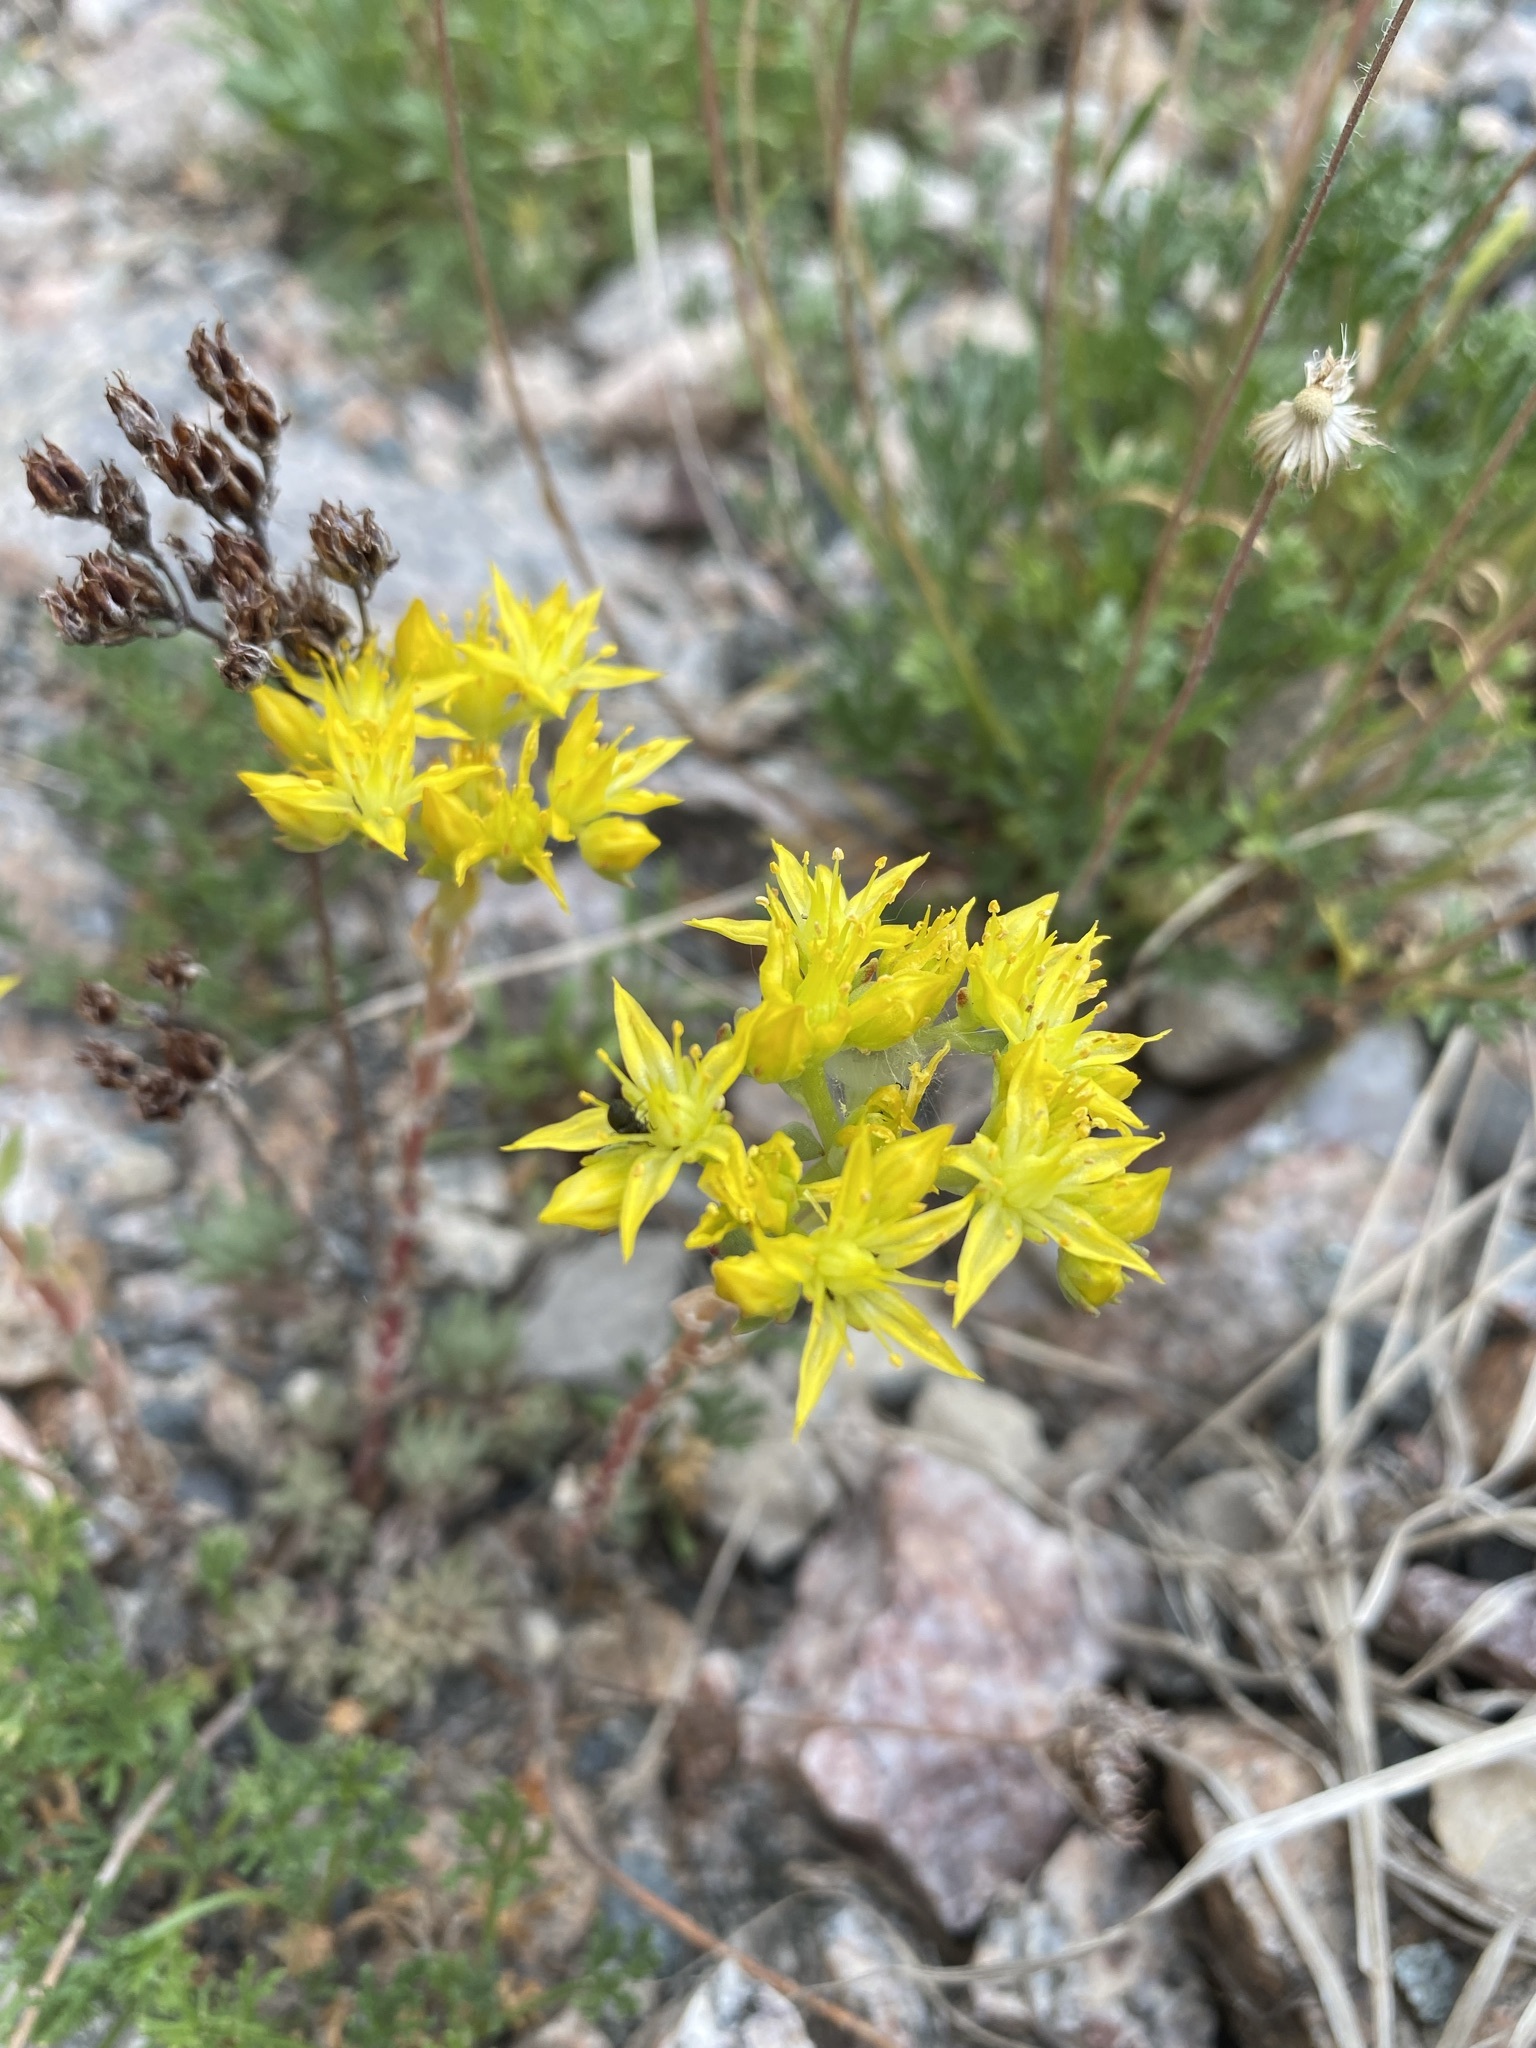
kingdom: Plantae
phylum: Tracheophyta
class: Magnoliopsida
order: Saxifragales
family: Crassulaceae
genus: Sedum
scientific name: Sedum lanceolatum
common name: Common stonecrop
